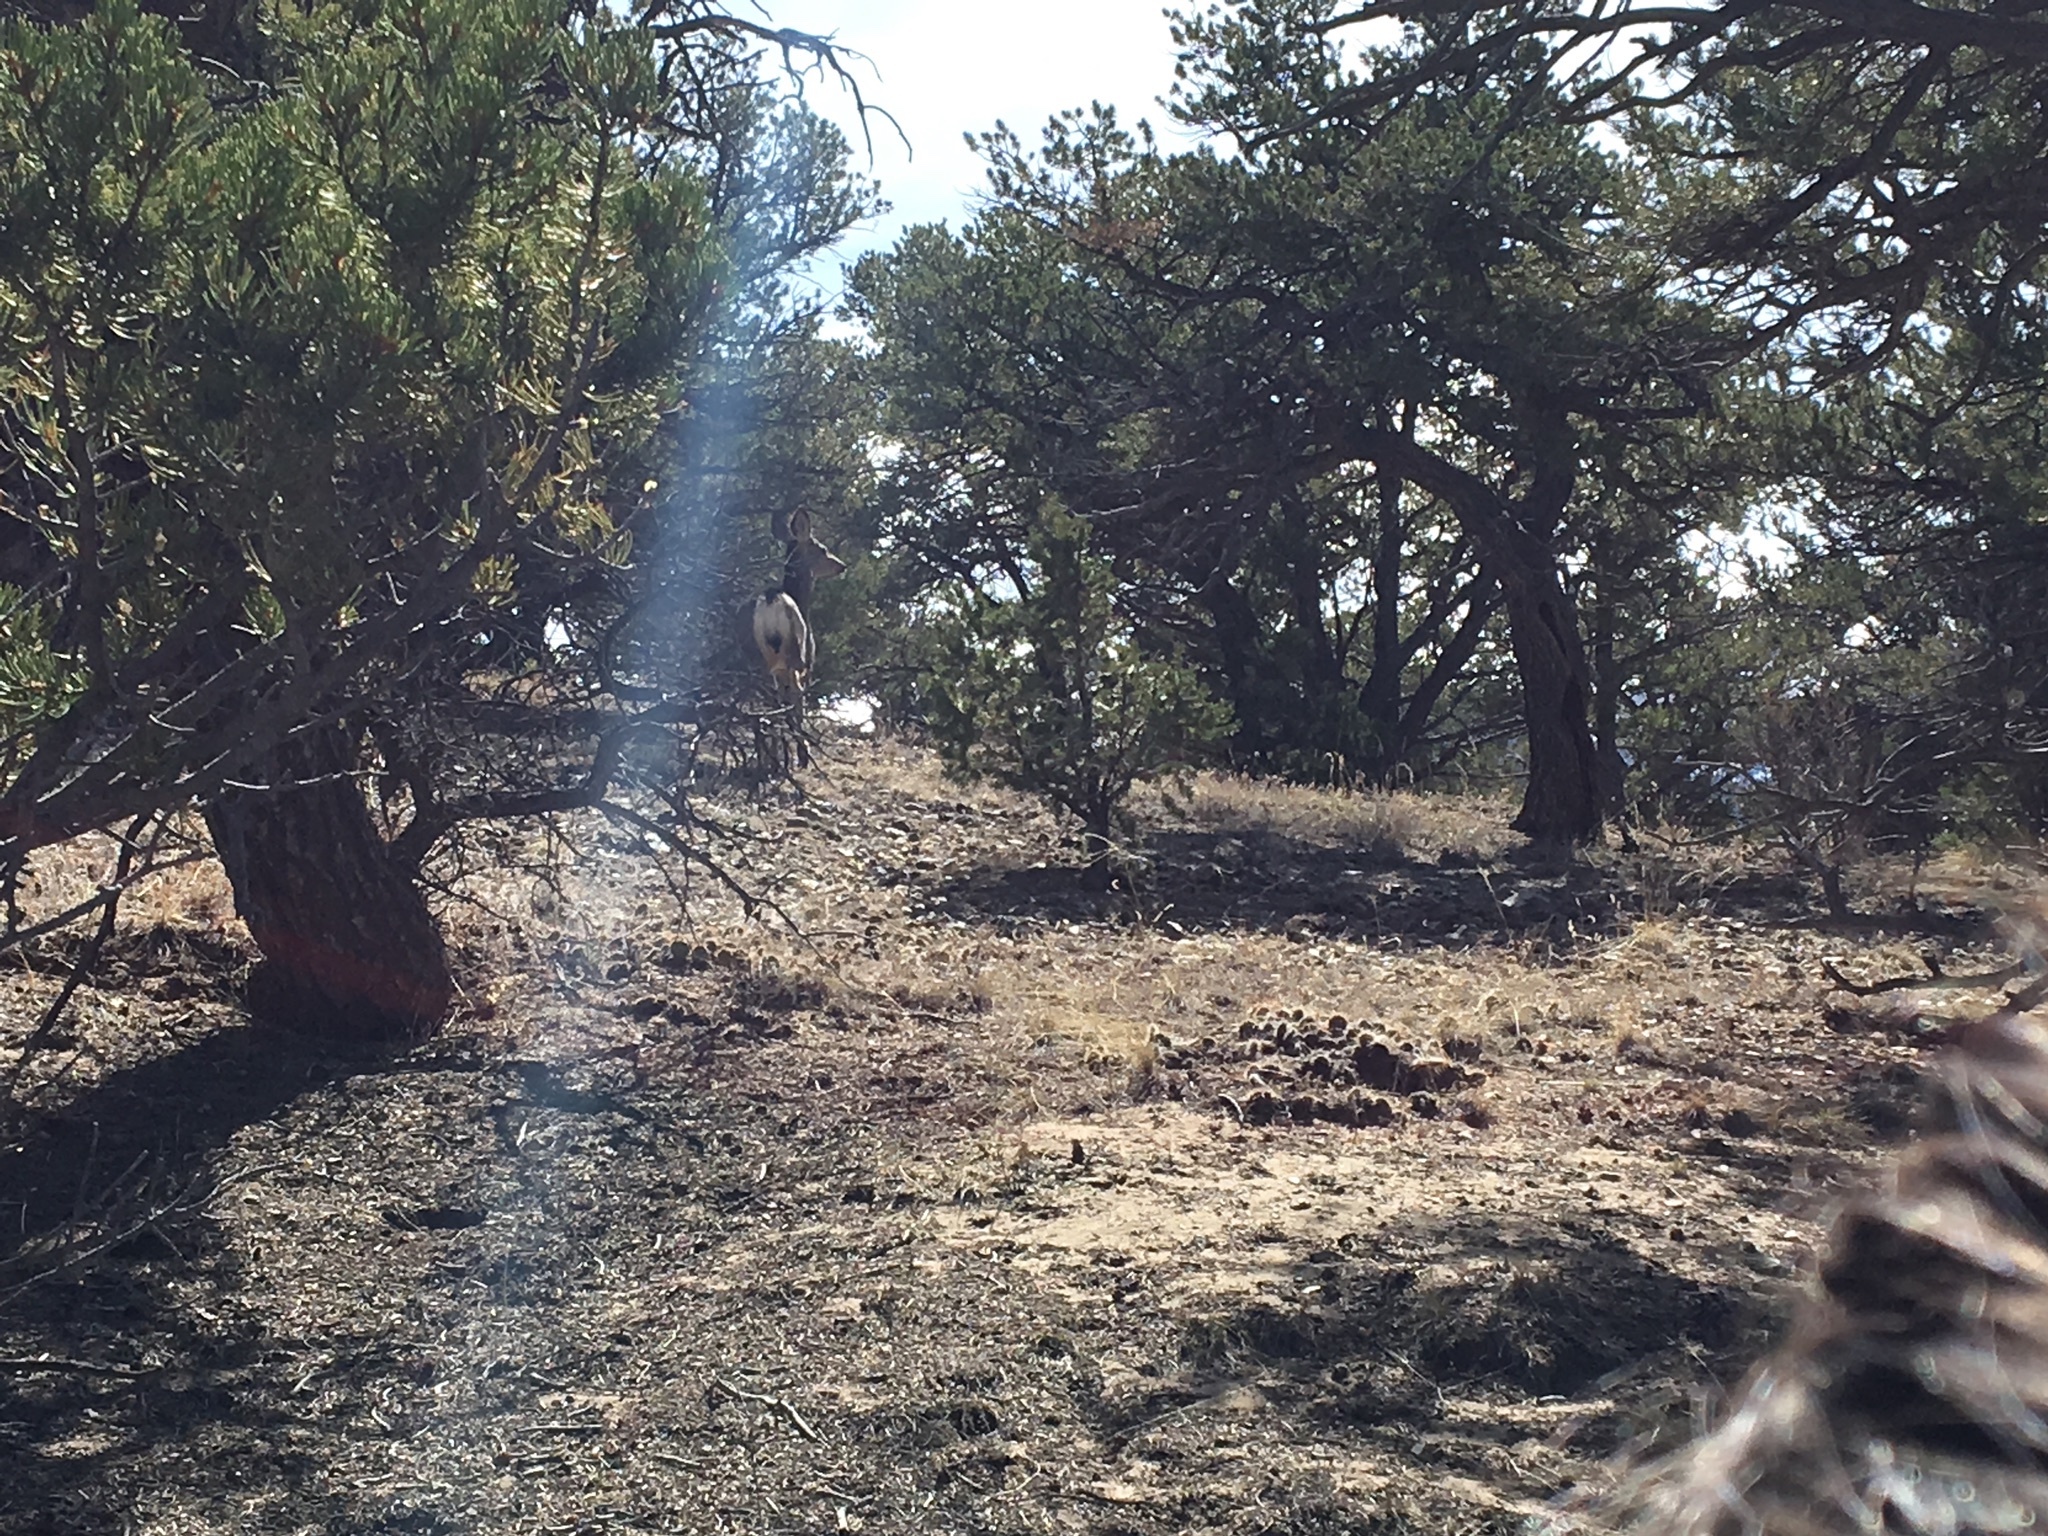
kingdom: Animalia
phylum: Chordata
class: Mammalia
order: Artiodactyla
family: Cervidae
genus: Odocoileus
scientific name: Odocoileus hemionus
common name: Mule deer
